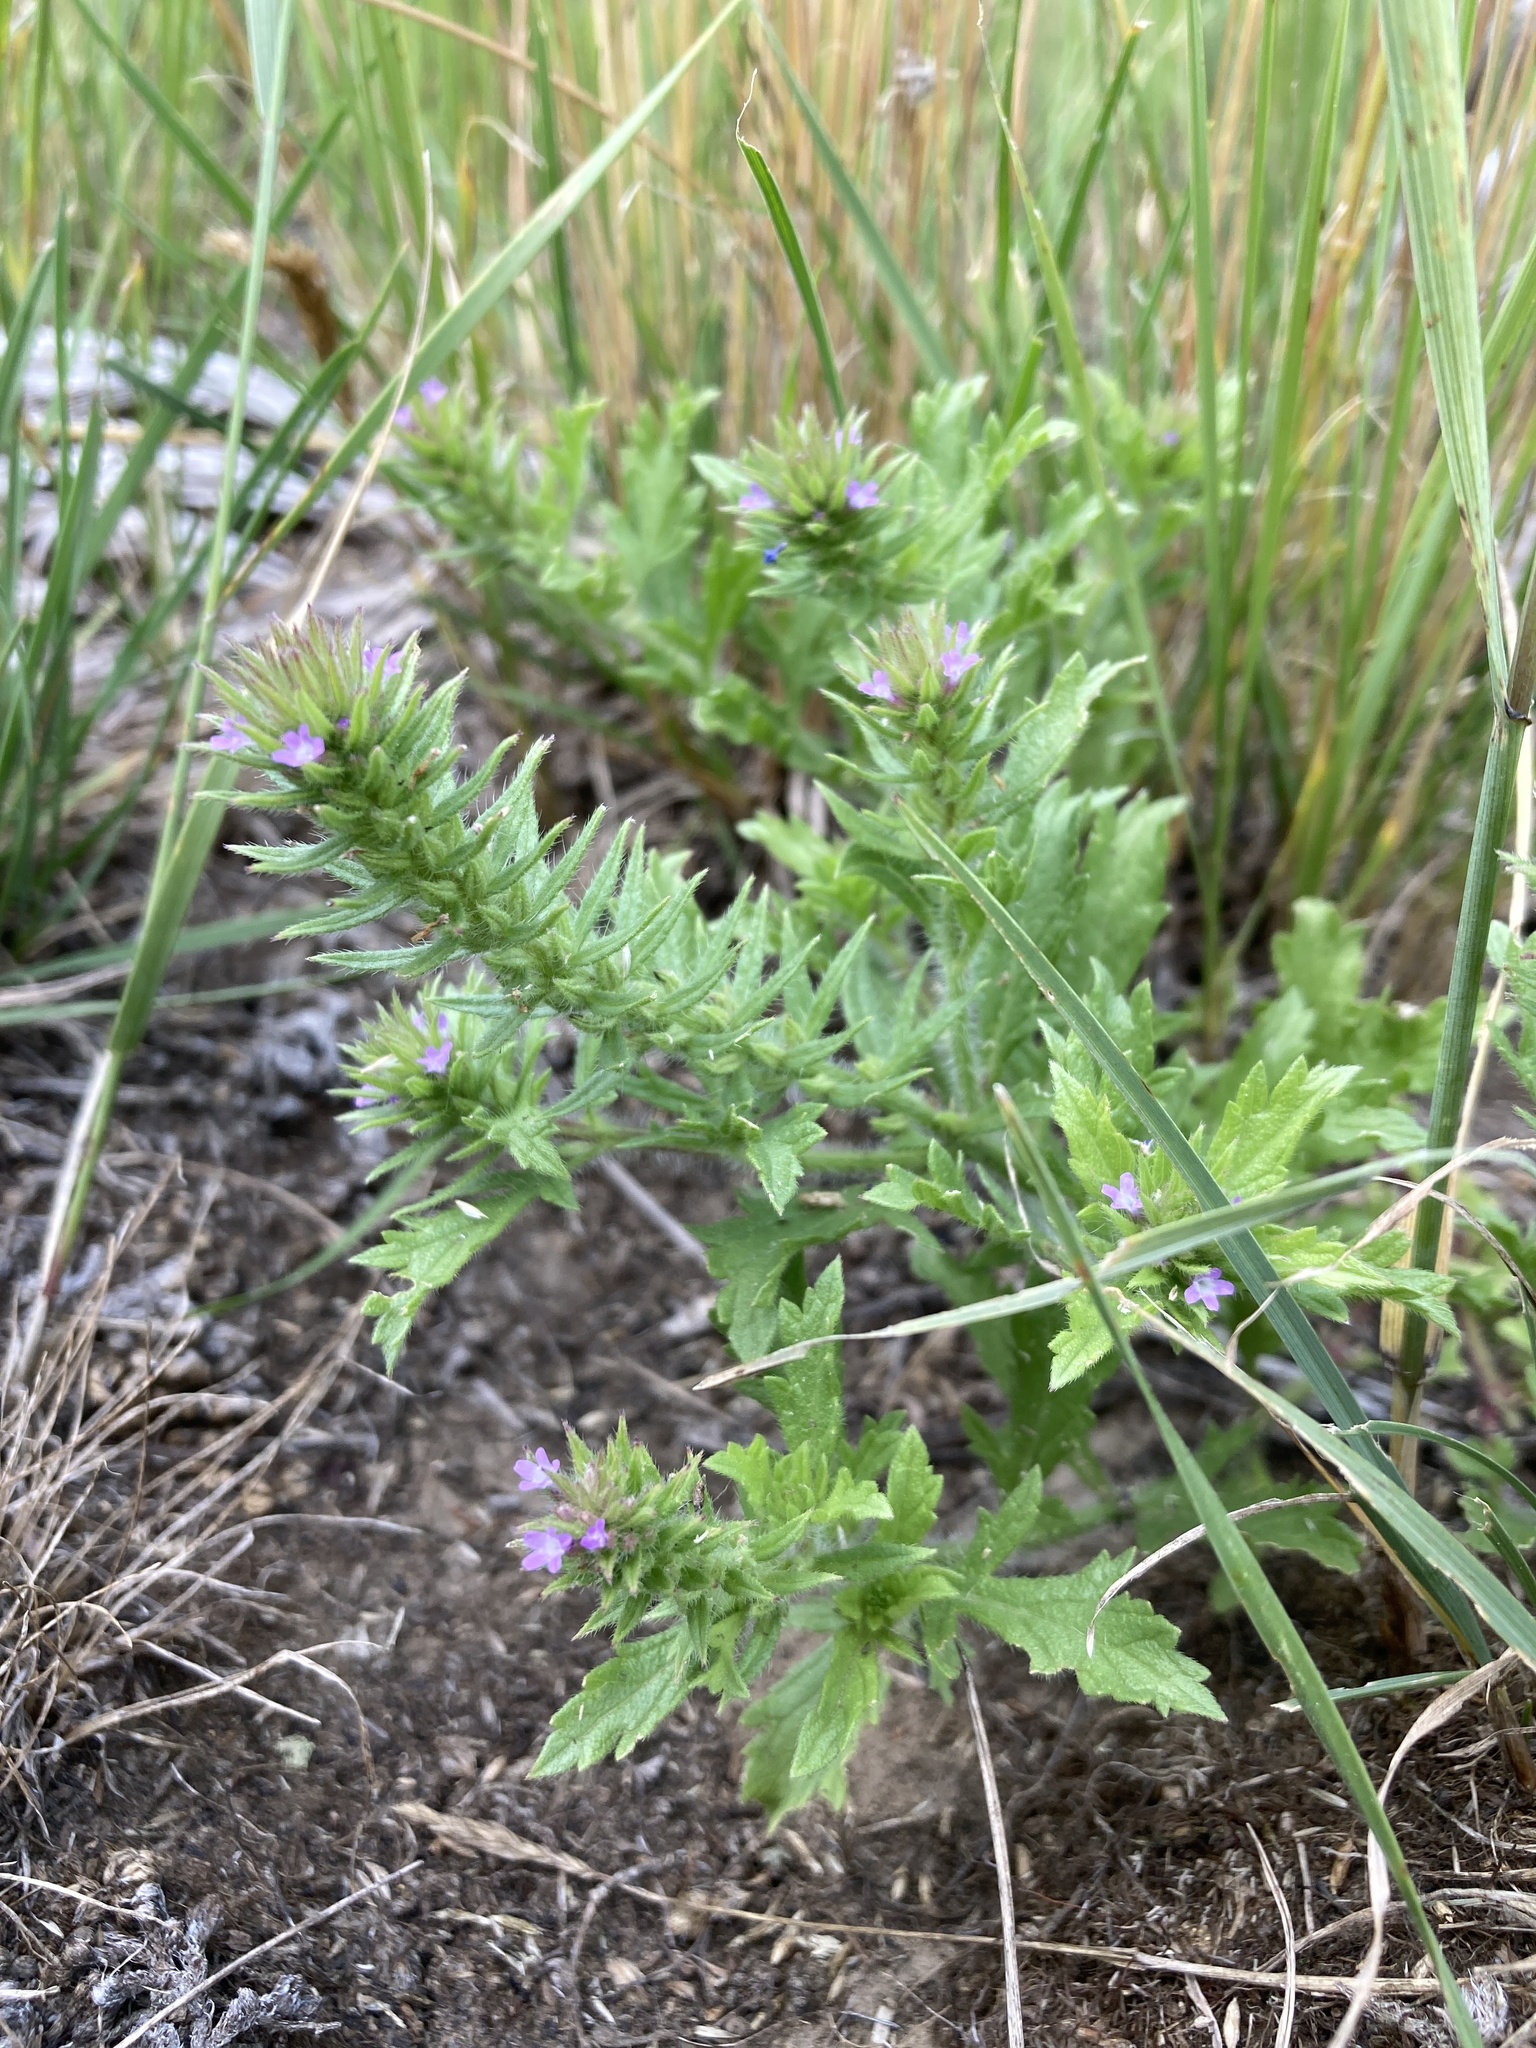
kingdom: Plantae
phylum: Tracheophyta
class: Magnoliopsida
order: Lamiales
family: Verbenaceae
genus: Verbena
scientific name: Verbena bracteata
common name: Bracted vervain
